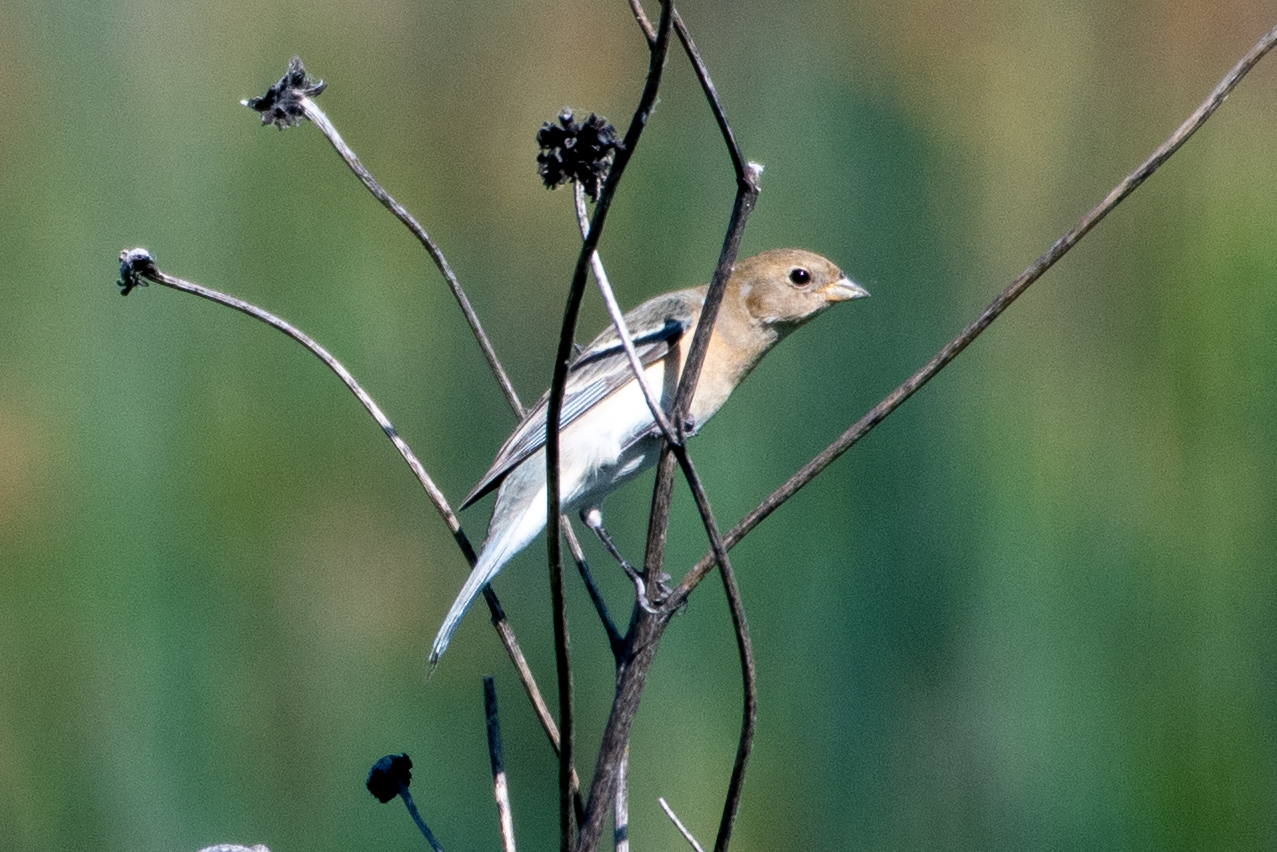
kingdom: Animalia
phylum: Chordata
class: Aves
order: Passeriformes
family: Cardinalidae
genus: Passerina
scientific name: Passerina amoena
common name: Lazuli bunting
